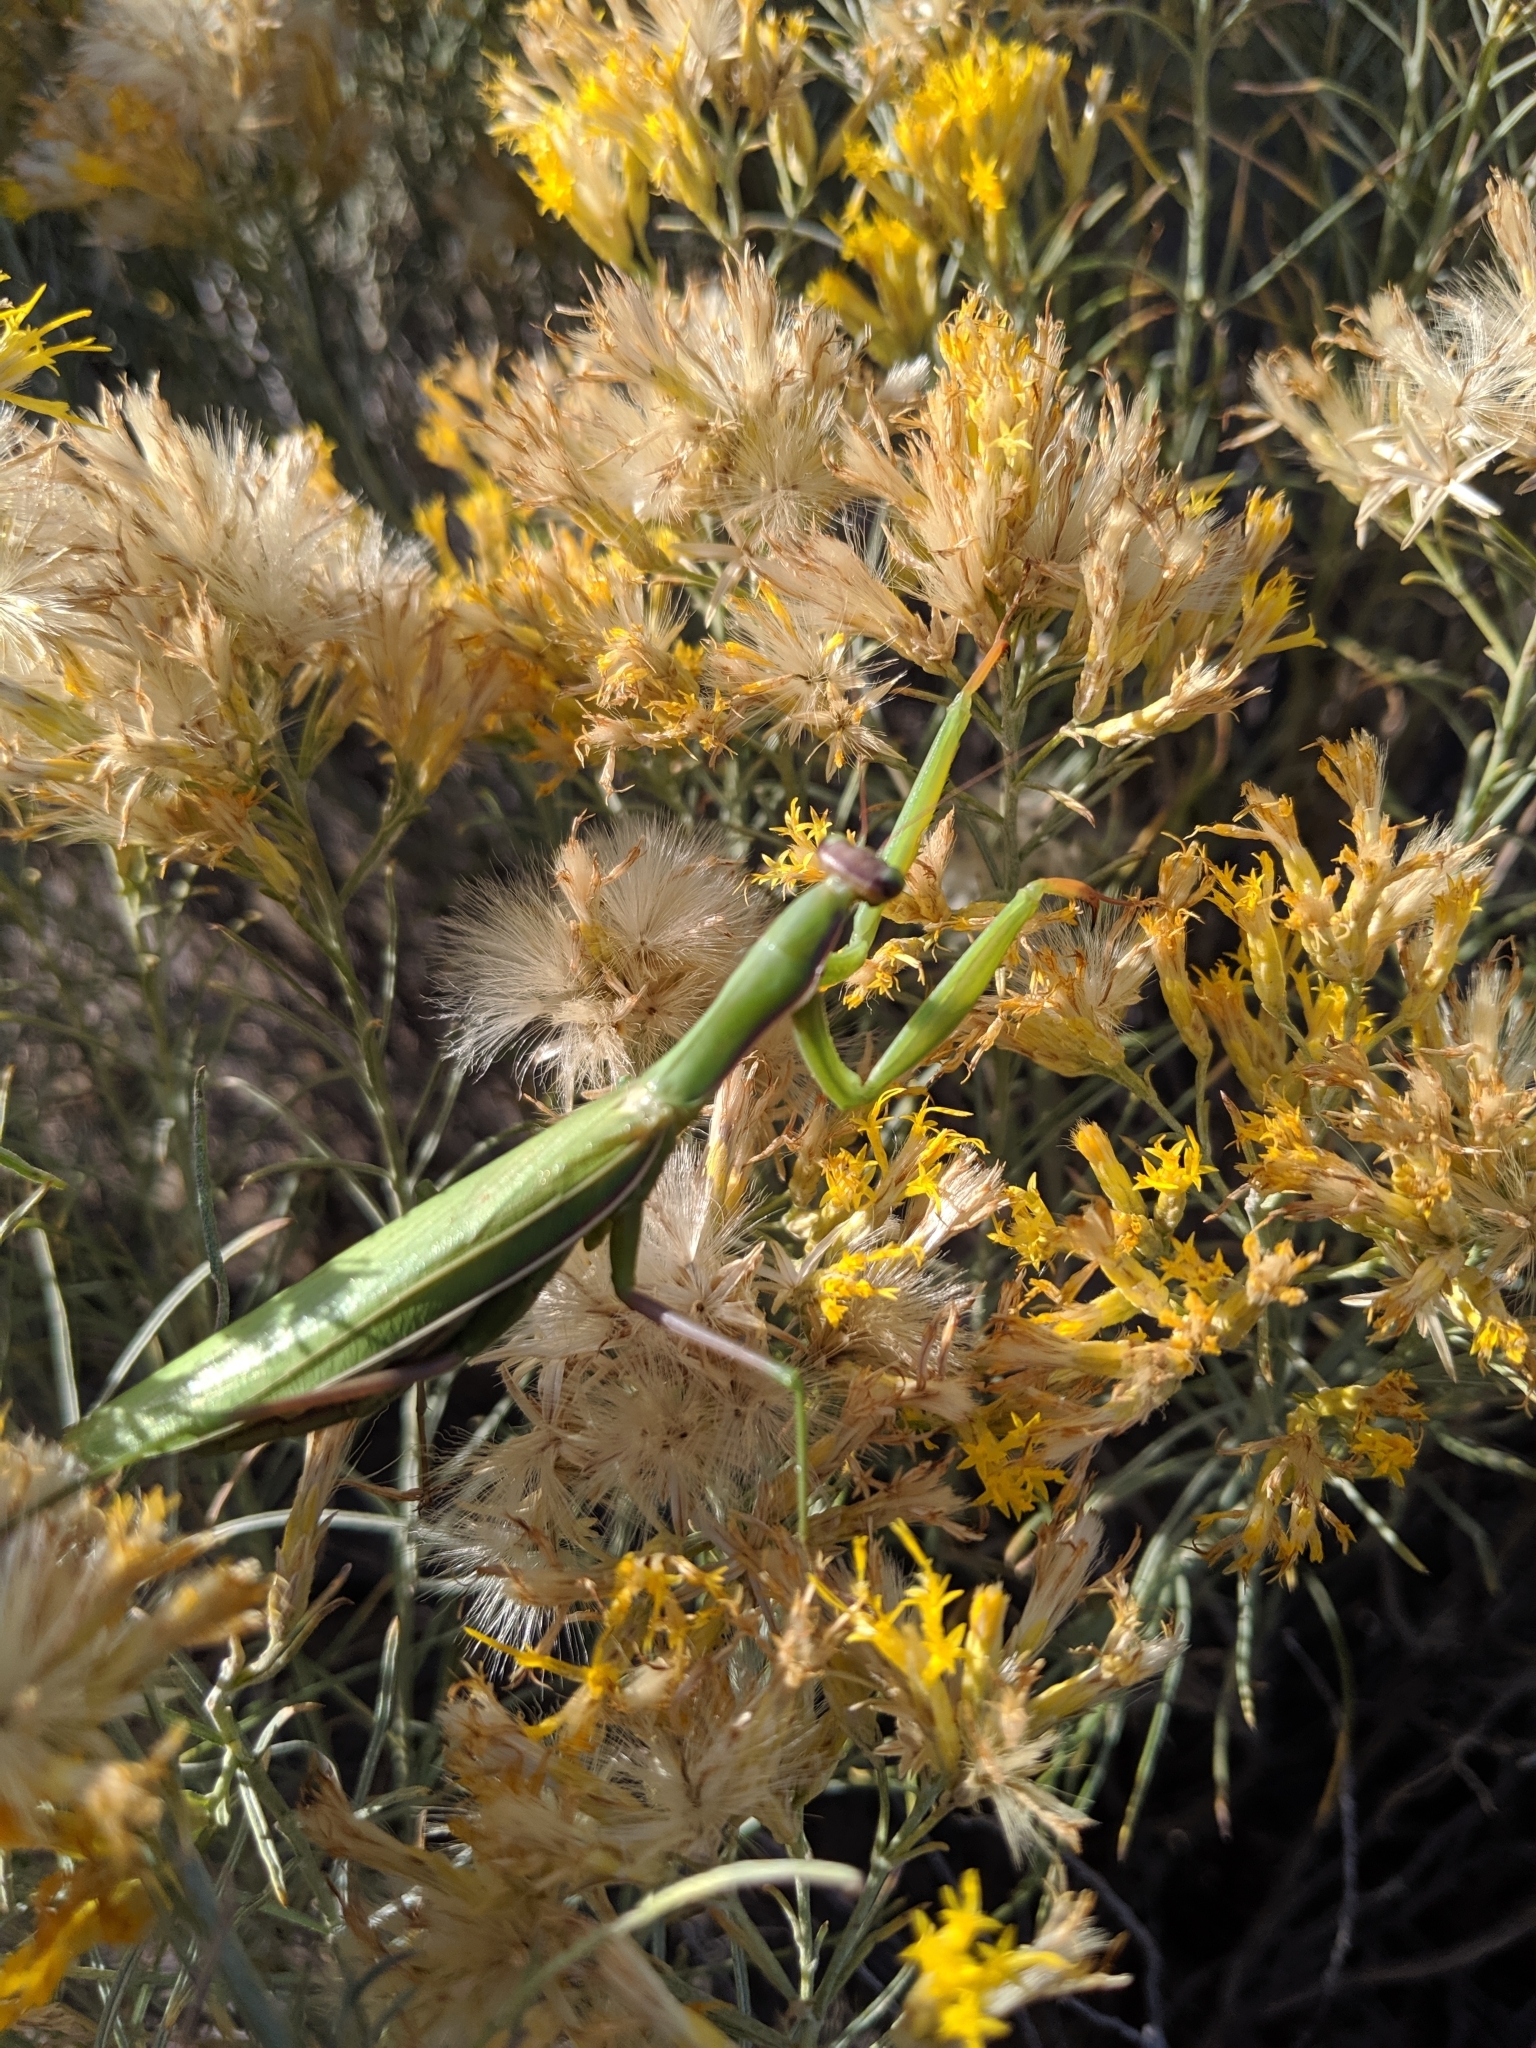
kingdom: Animalia
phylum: Arthropoda
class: Insecta
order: Mantodea
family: Mantidae
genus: Mantis
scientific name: Mantis religiosa
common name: Praying mantis
